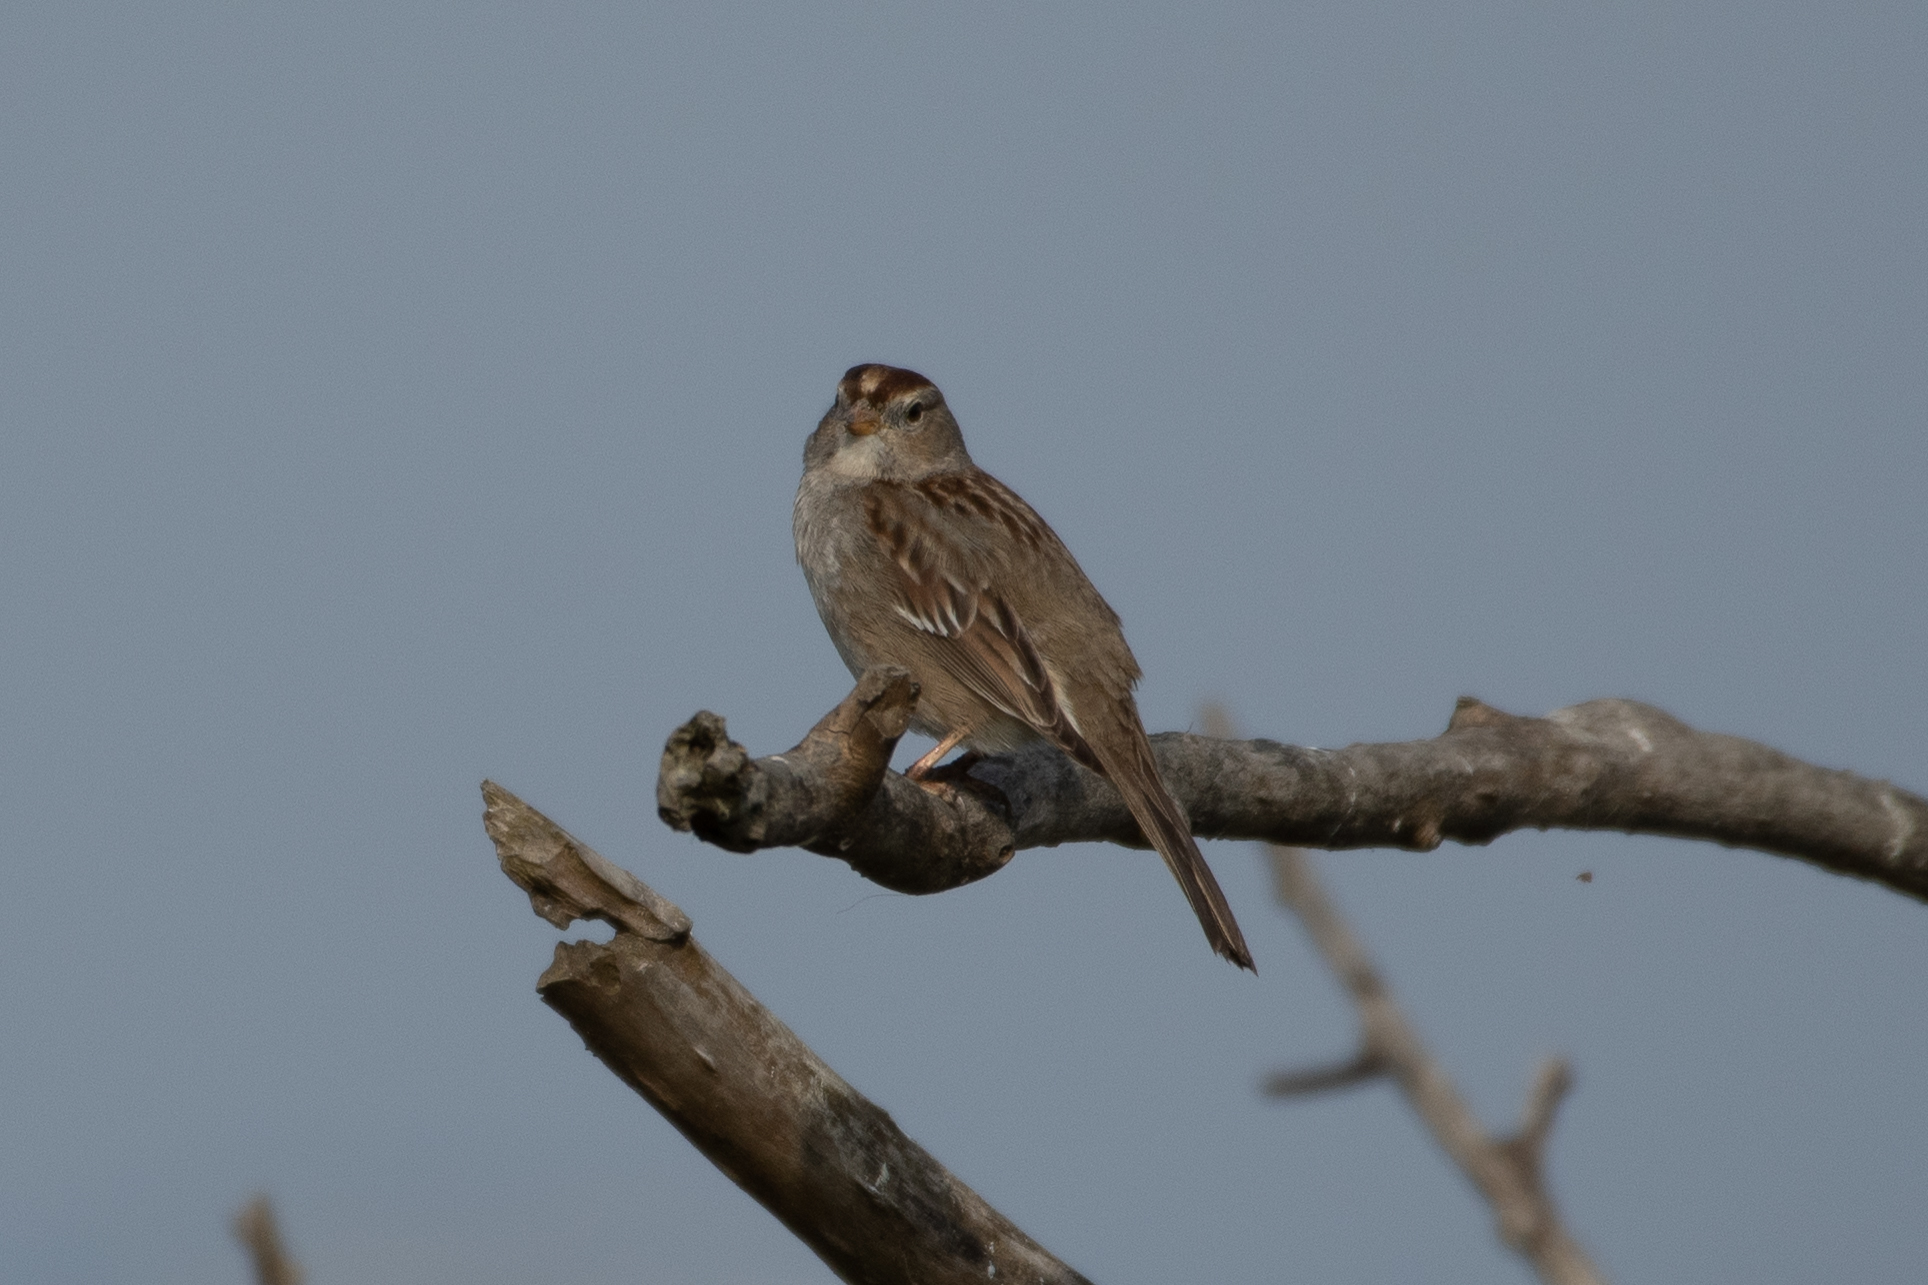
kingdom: Animalia
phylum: Chordata
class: Aves
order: Passeriformes
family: Passerellidae
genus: Zonotrichia
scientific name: Zonotrichia leucophrys
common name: White-crowned sparrow
